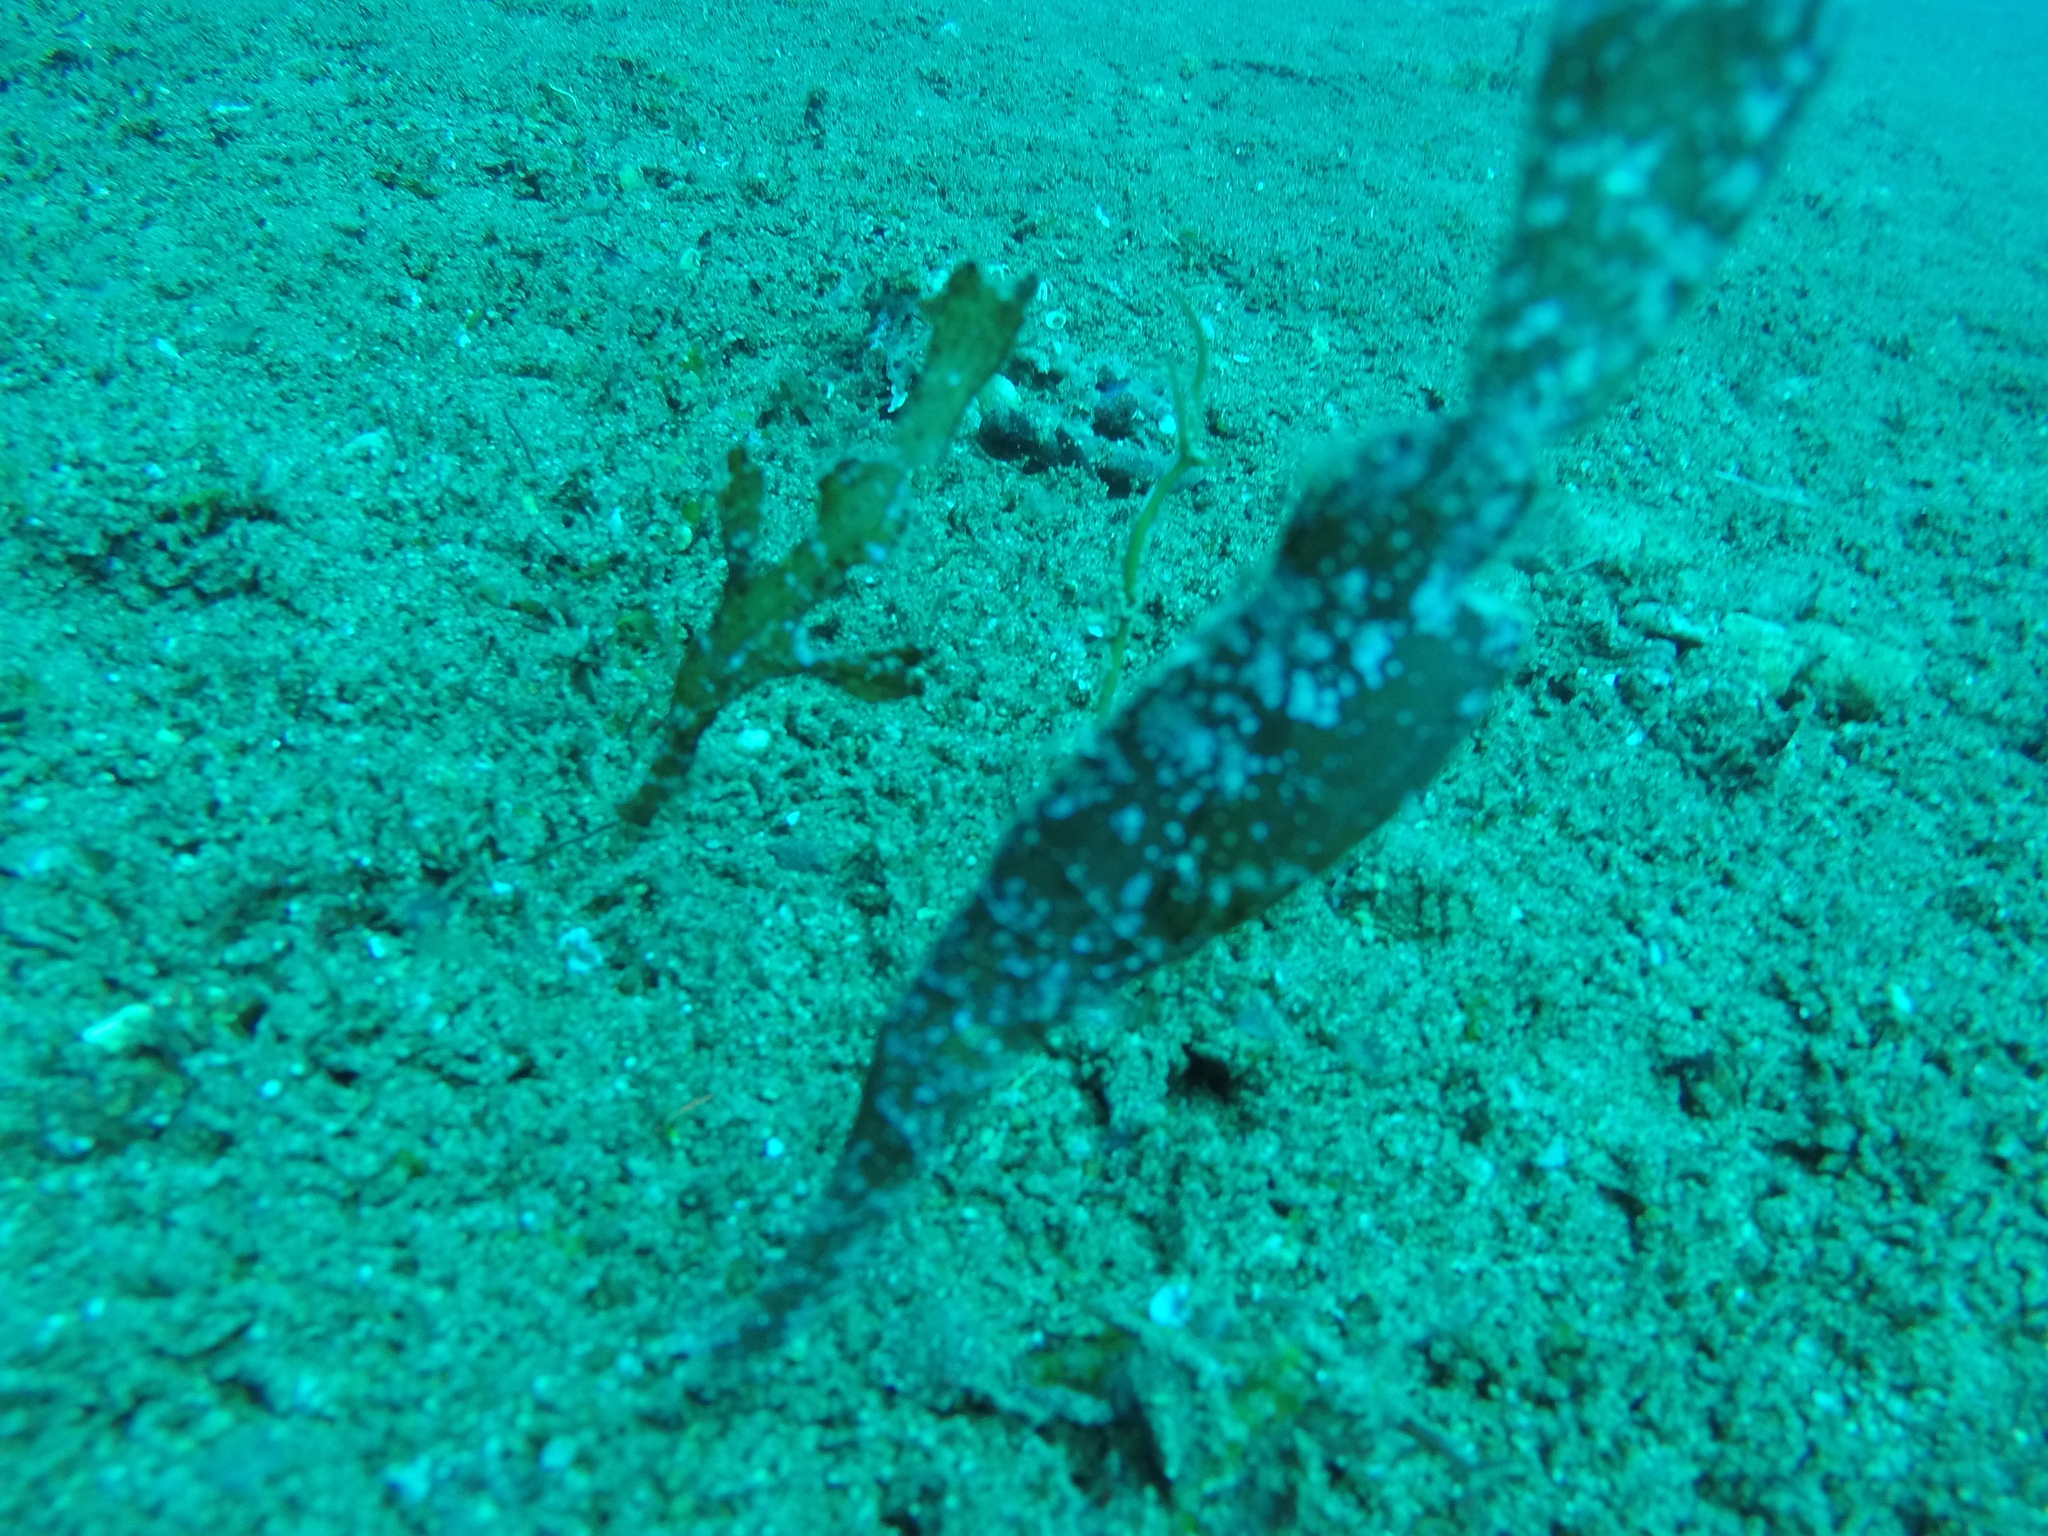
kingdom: Animalia
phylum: Chordata
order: Syngnathiformes
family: Solenostomidae
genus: Solenostomus
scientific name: Solenostomus cyanopterus
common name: Blue-finned ghost pipefish
